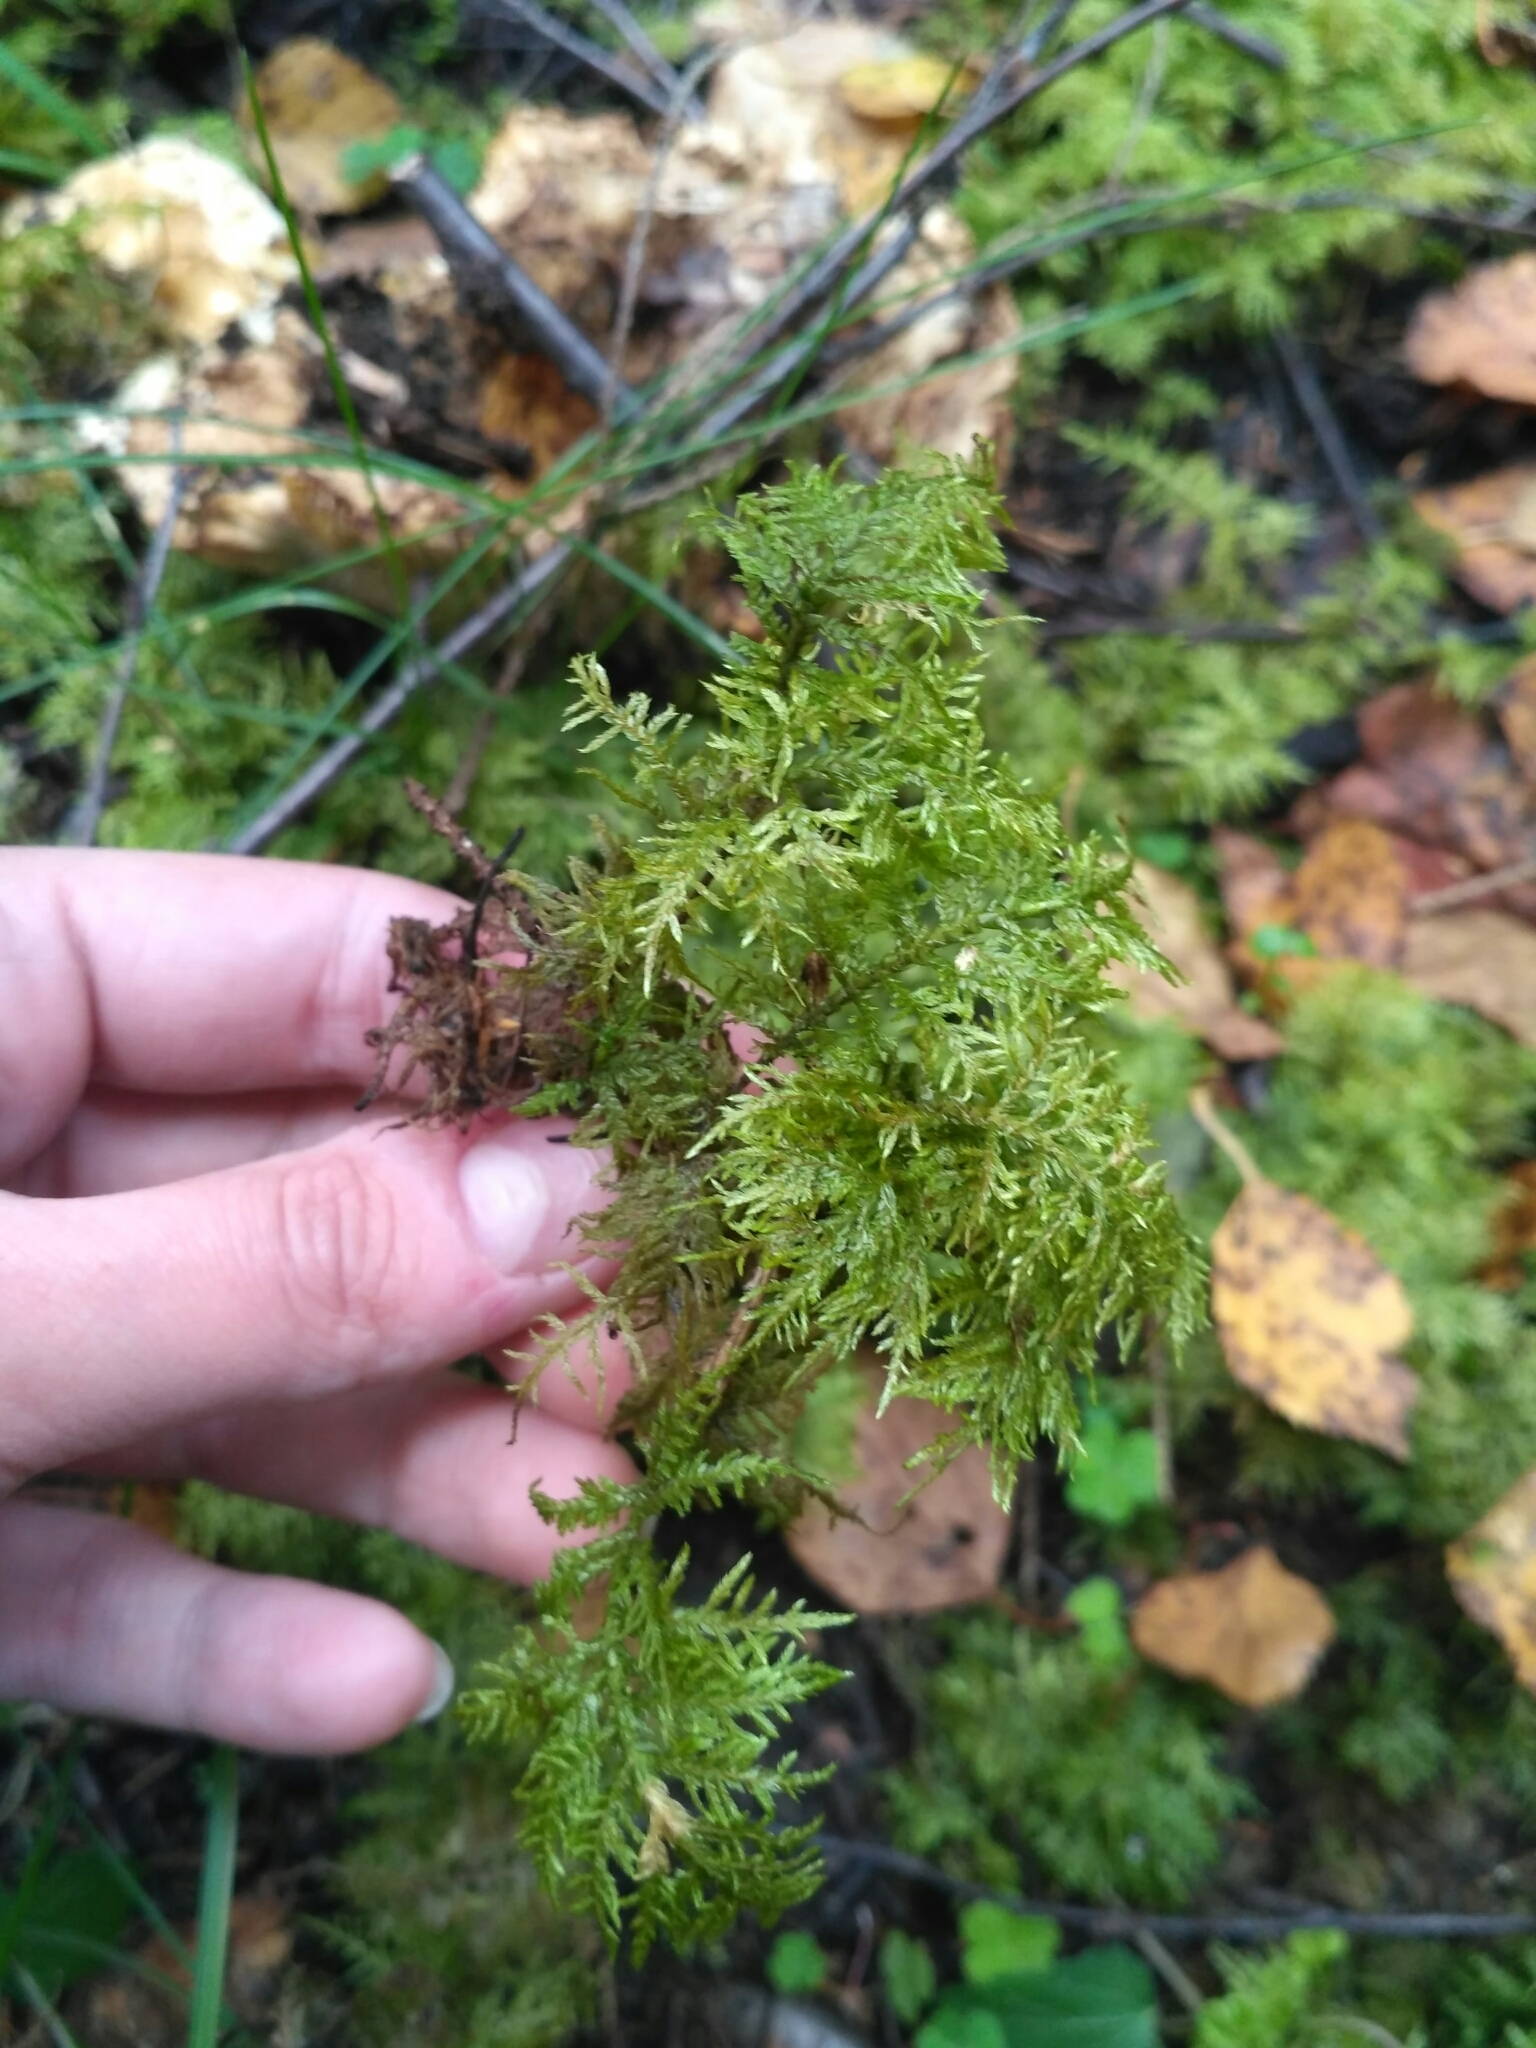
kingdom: Plantae
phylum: Bryophyta
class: Bryopsida
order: Hypnales
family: Hylocomiaceae
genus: Hylocomium
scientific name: Hylocomium splendens
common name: Stairstep moss
